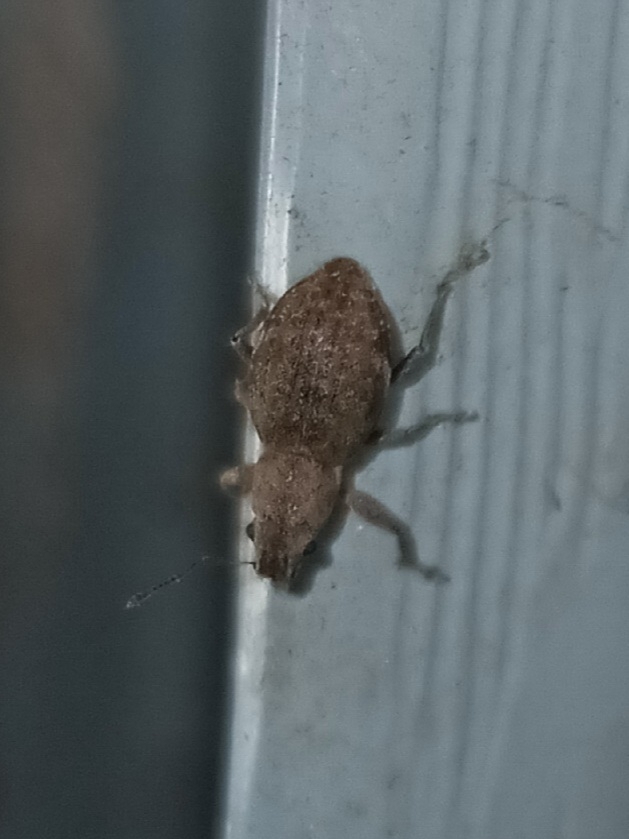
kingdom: Animalia
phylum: Arthropoda
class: Insecta
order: Coleoptera
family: Curculionidae
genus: Naupactus
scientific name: Naupactus cervinus
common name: Fuller rose beetle
